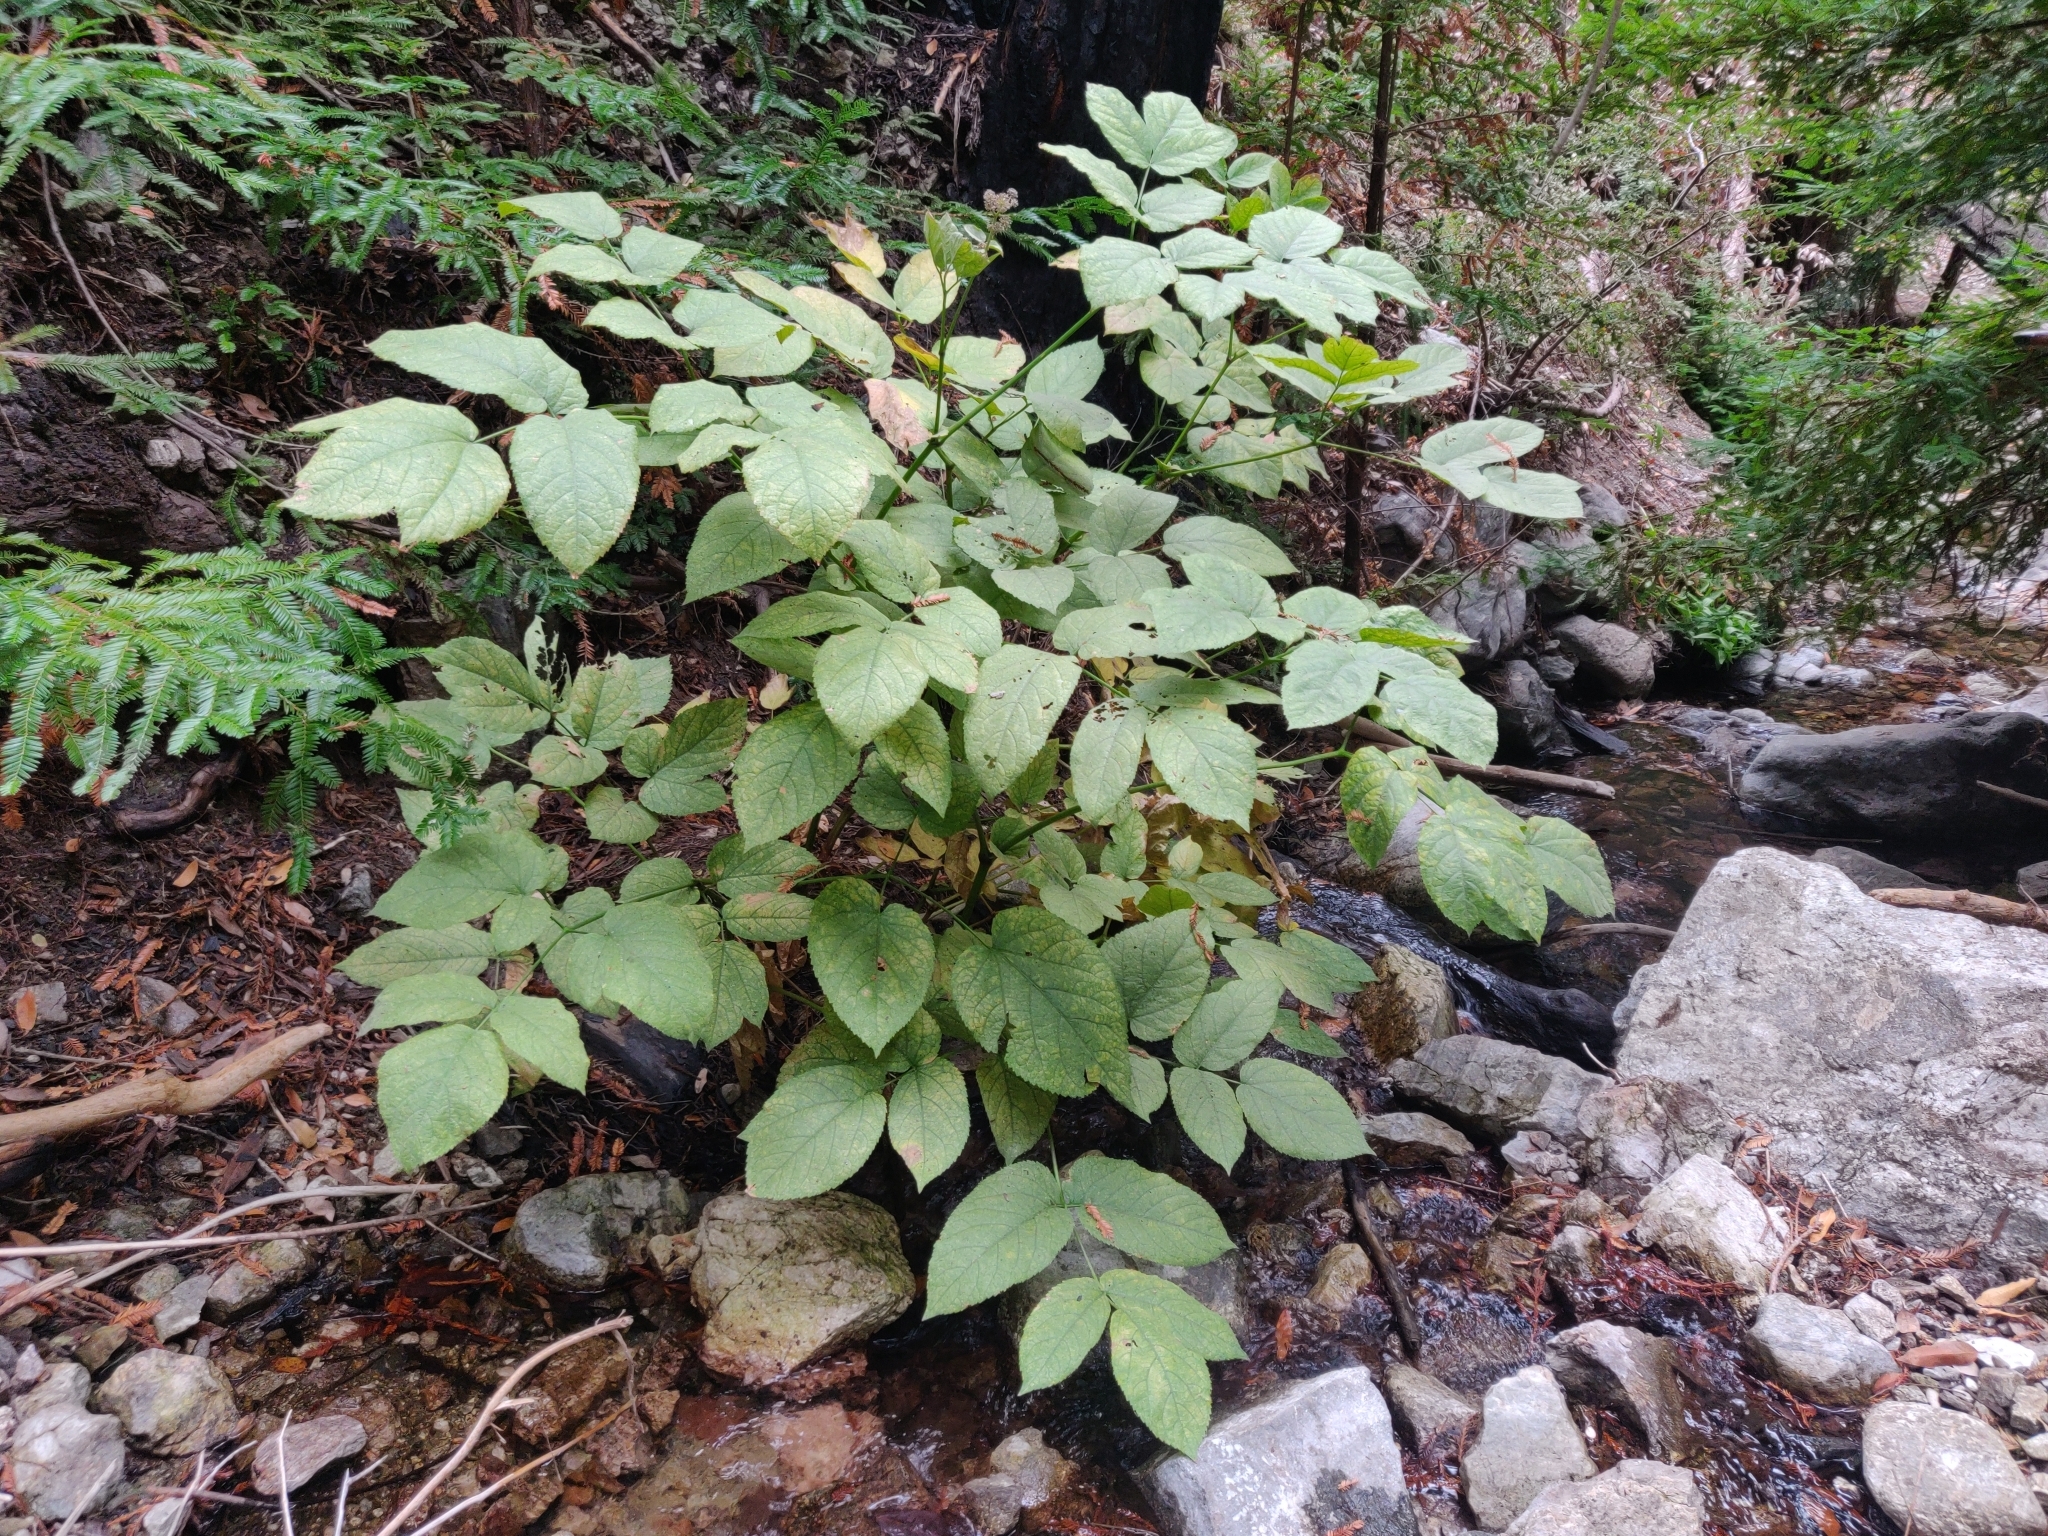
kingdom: Plantae
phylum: Tracheophyta
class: Magnoliopsida
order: Apiales
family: Araliaceae
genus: Aralia
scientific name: Aralia californica
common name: California-ginseng
